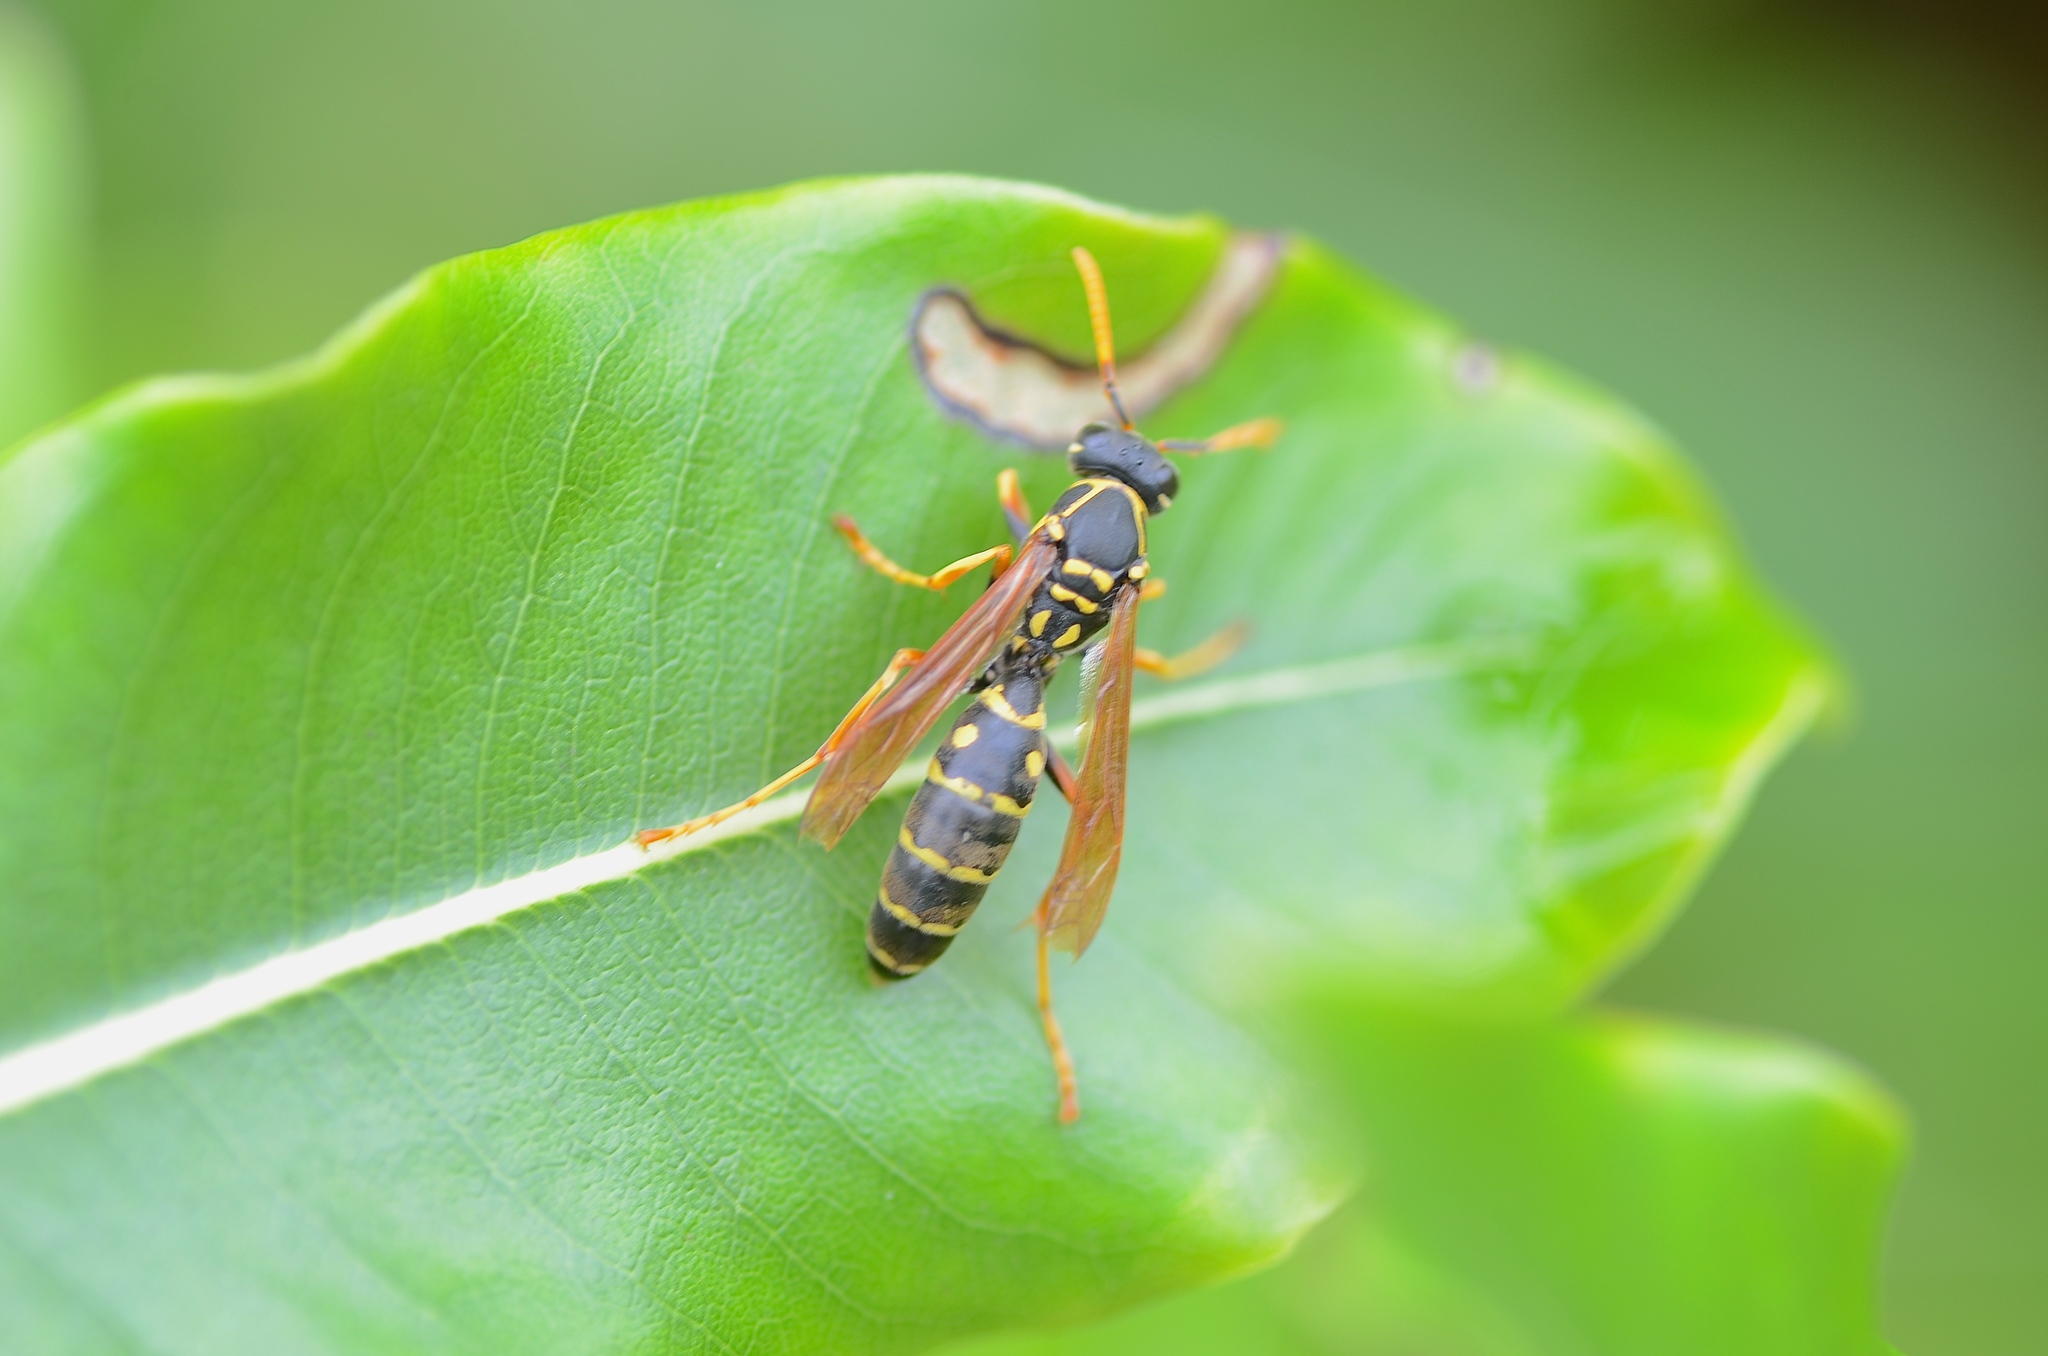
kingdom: Animalia
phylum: Arthropoda
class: Insecta
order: Hymenoptera
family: Eumenidae
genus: Polistes
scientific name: Polistes chinensis
